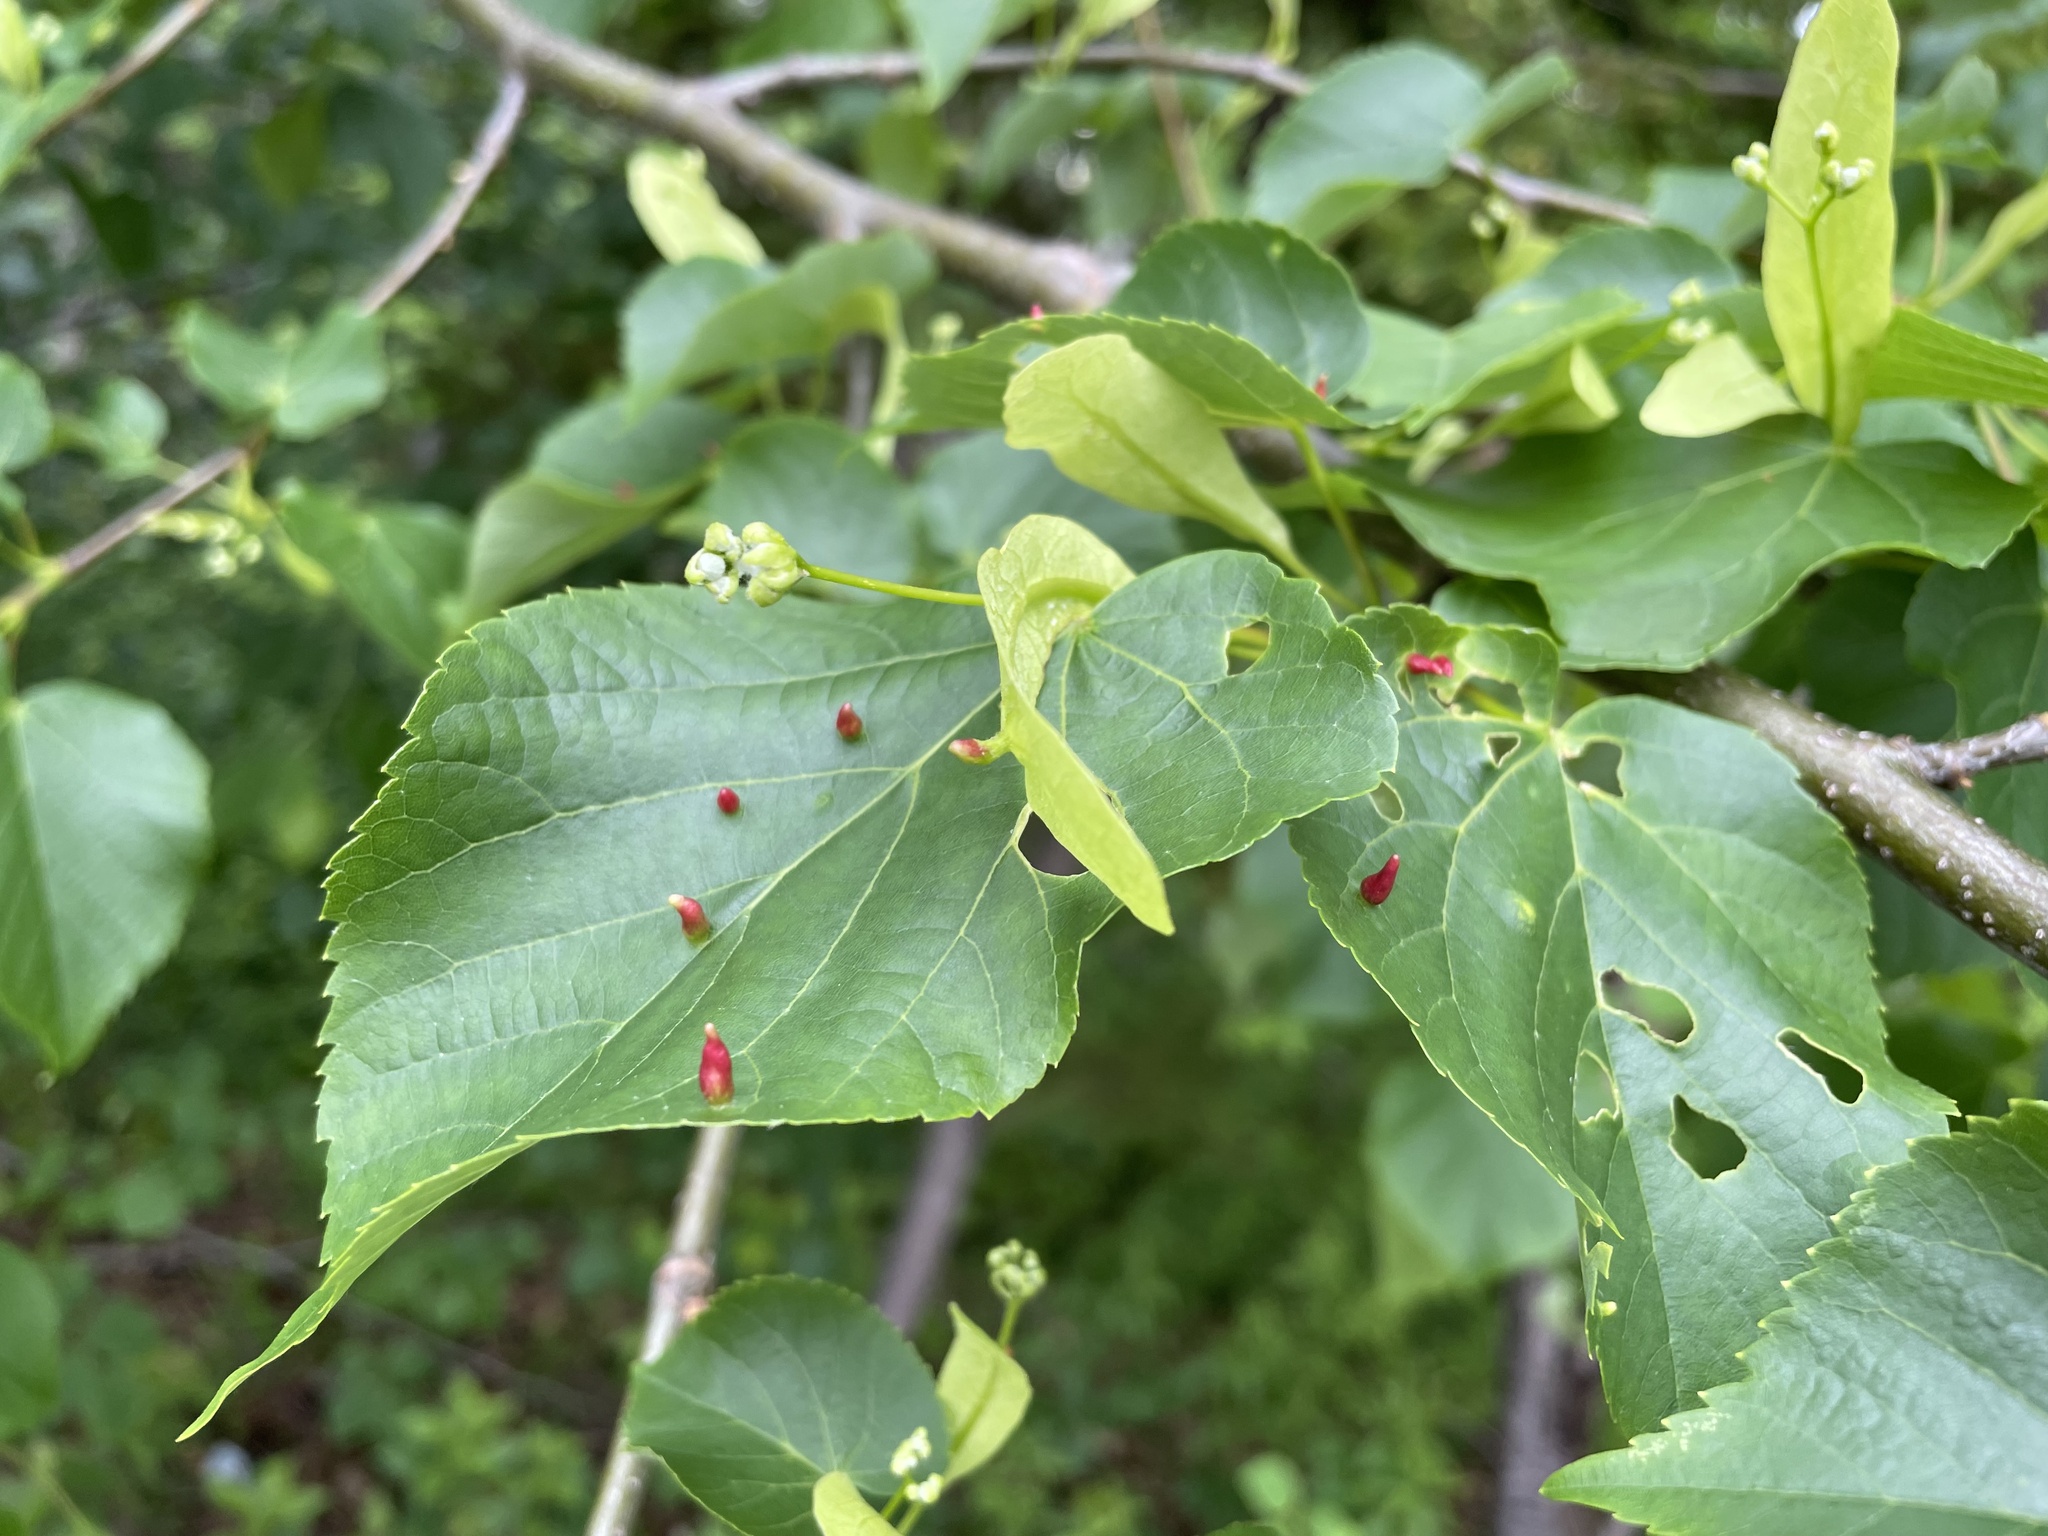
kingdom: Animalia
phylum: Arthropoda
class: Arachnida
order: Trombidiformes
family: Eriophyidae
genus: Eriophyes
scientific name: Eriophyes tiliae
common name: Red nail gall mite
